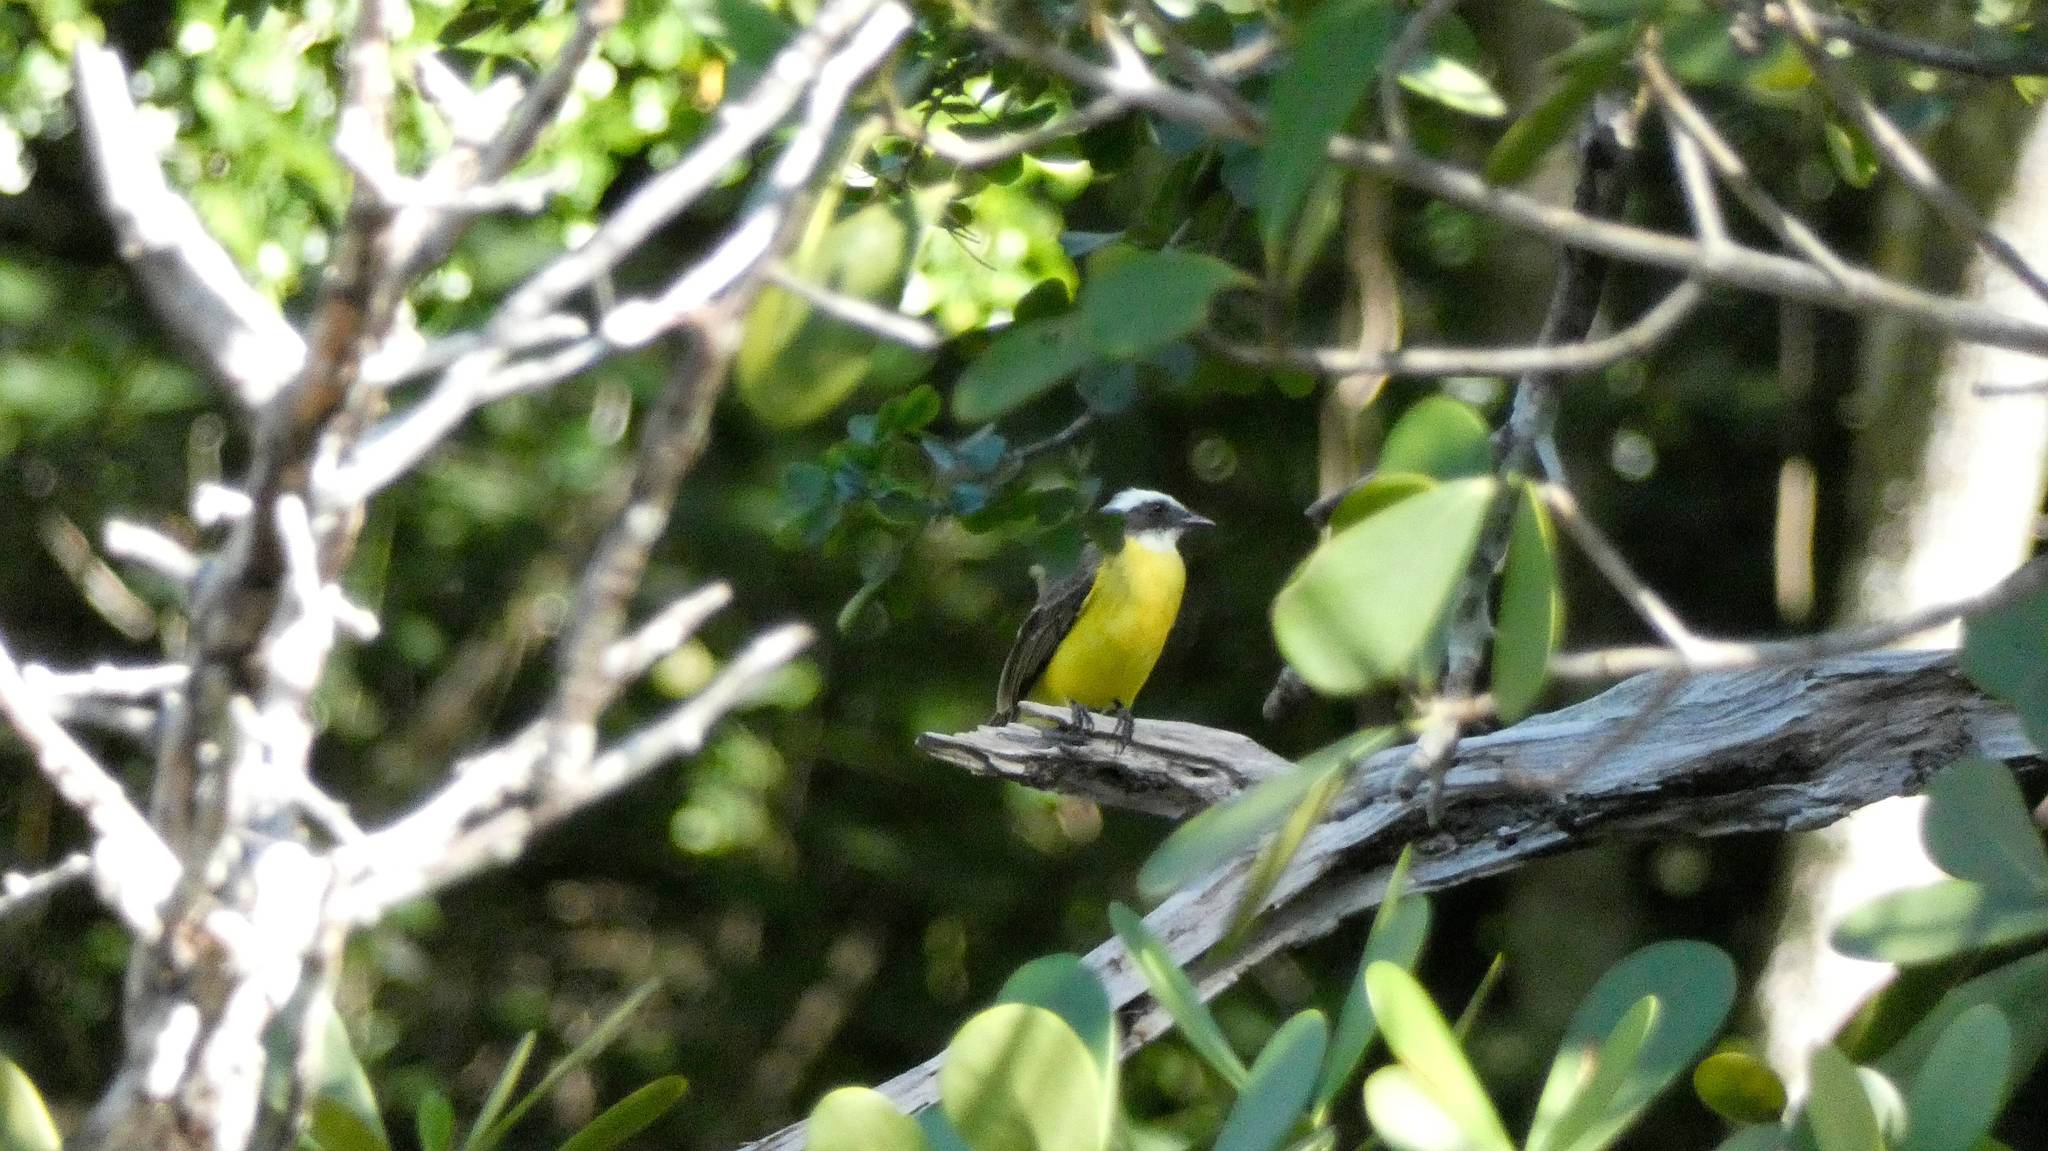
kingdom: Animalia
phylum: Chordata
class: Aves
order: Passeriformes
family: Tyrannidae
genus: Myiozetetes
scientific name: Myiozetetes similis
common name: Social flycatcher
